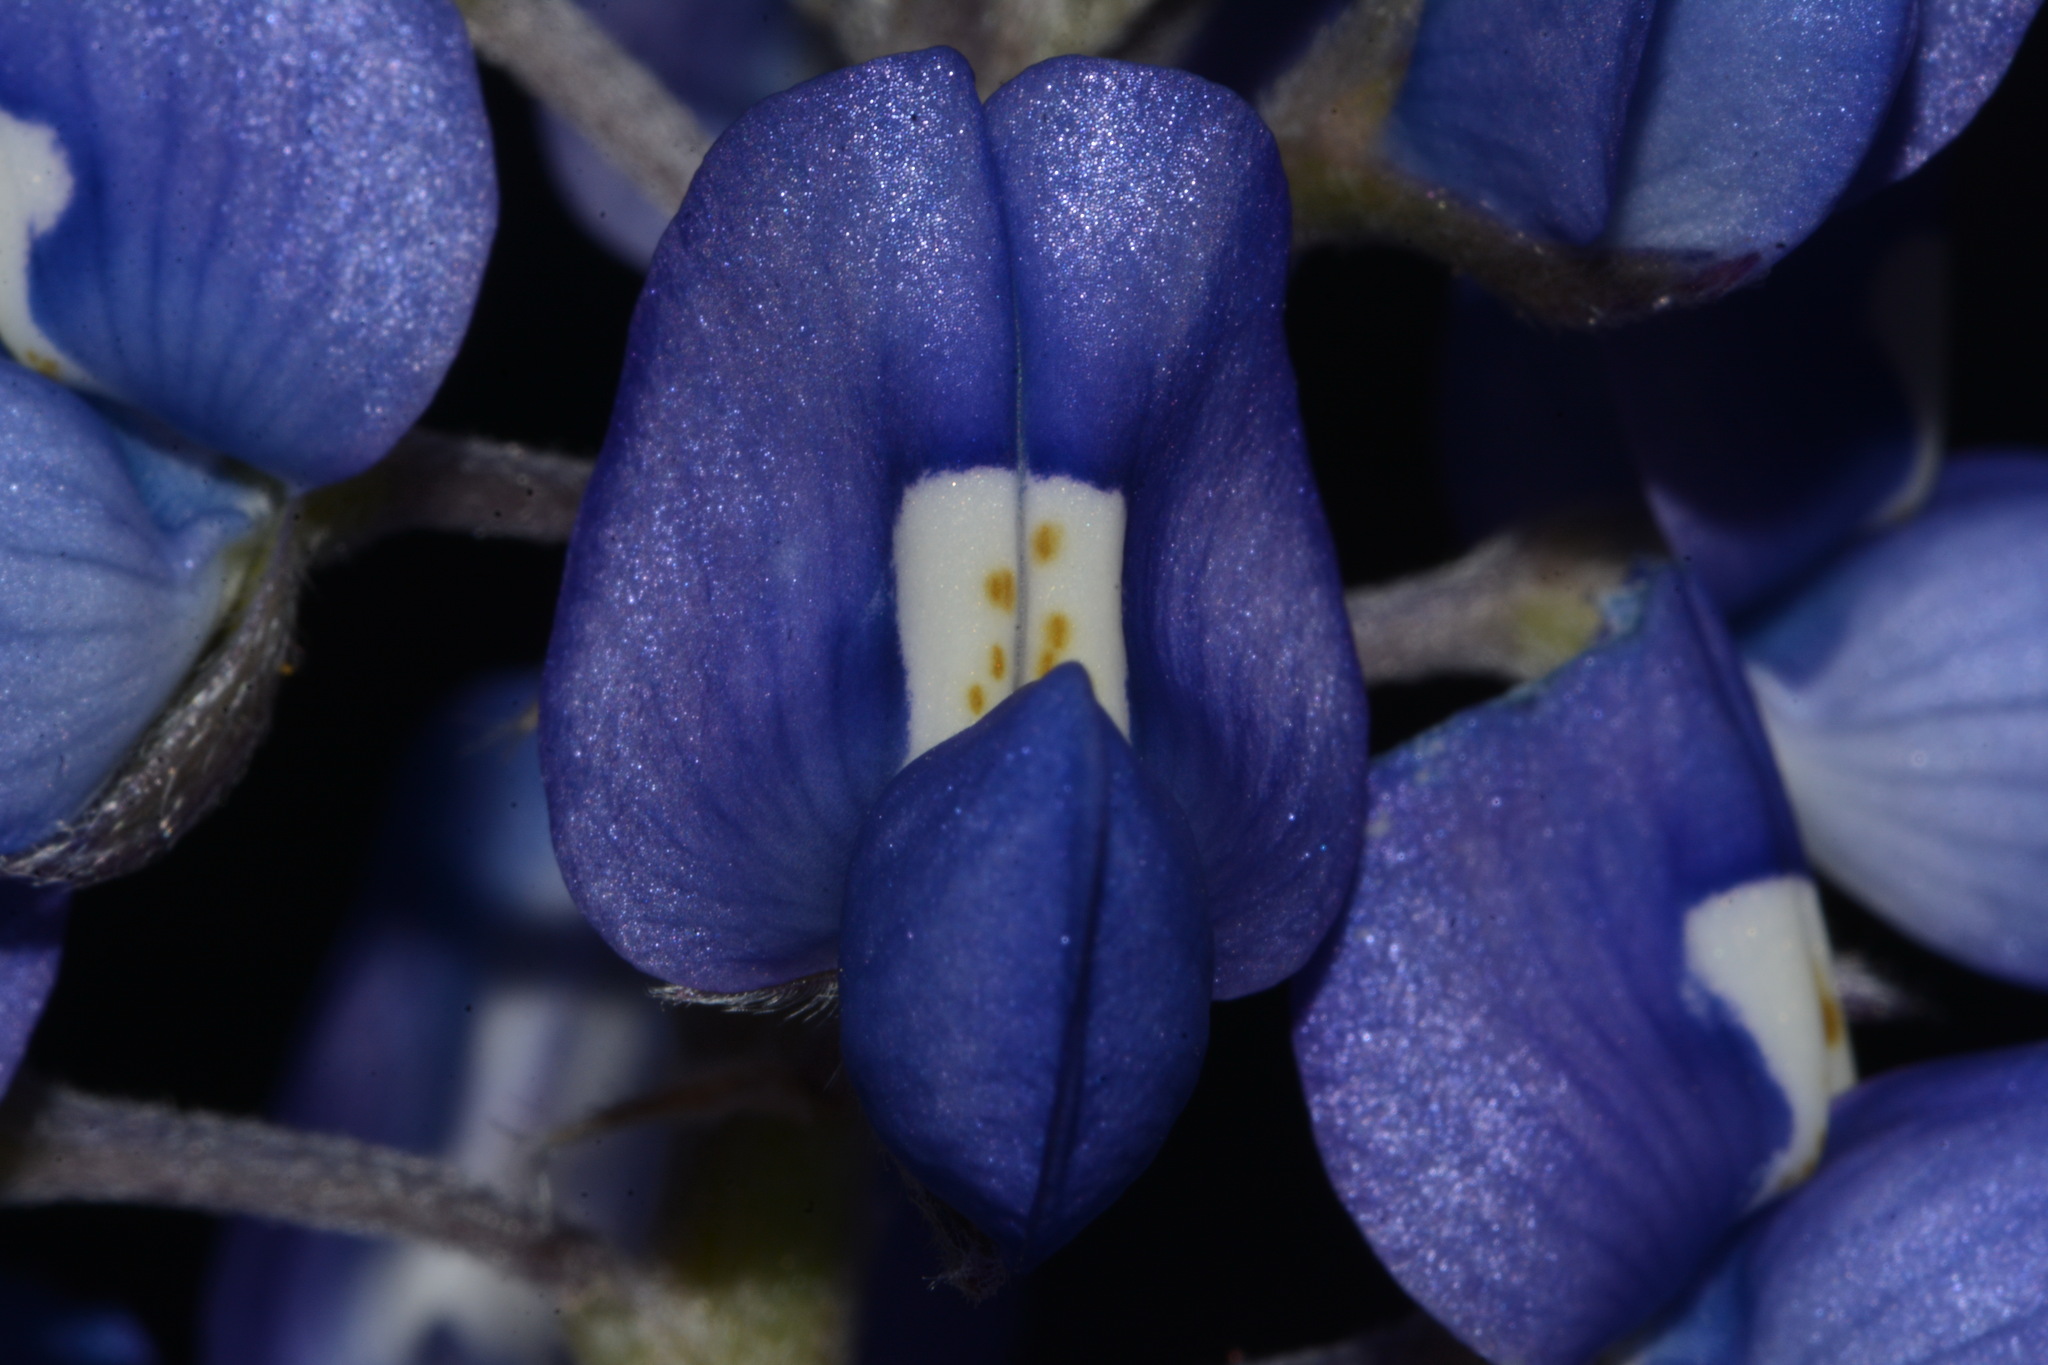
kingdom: Plantae
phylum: Tracheophyta
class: Magnoliopsida
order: Fabales
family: Fabaceae
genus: Lupinus
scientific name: Lupinus texensis
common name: Texas bluebonnet
